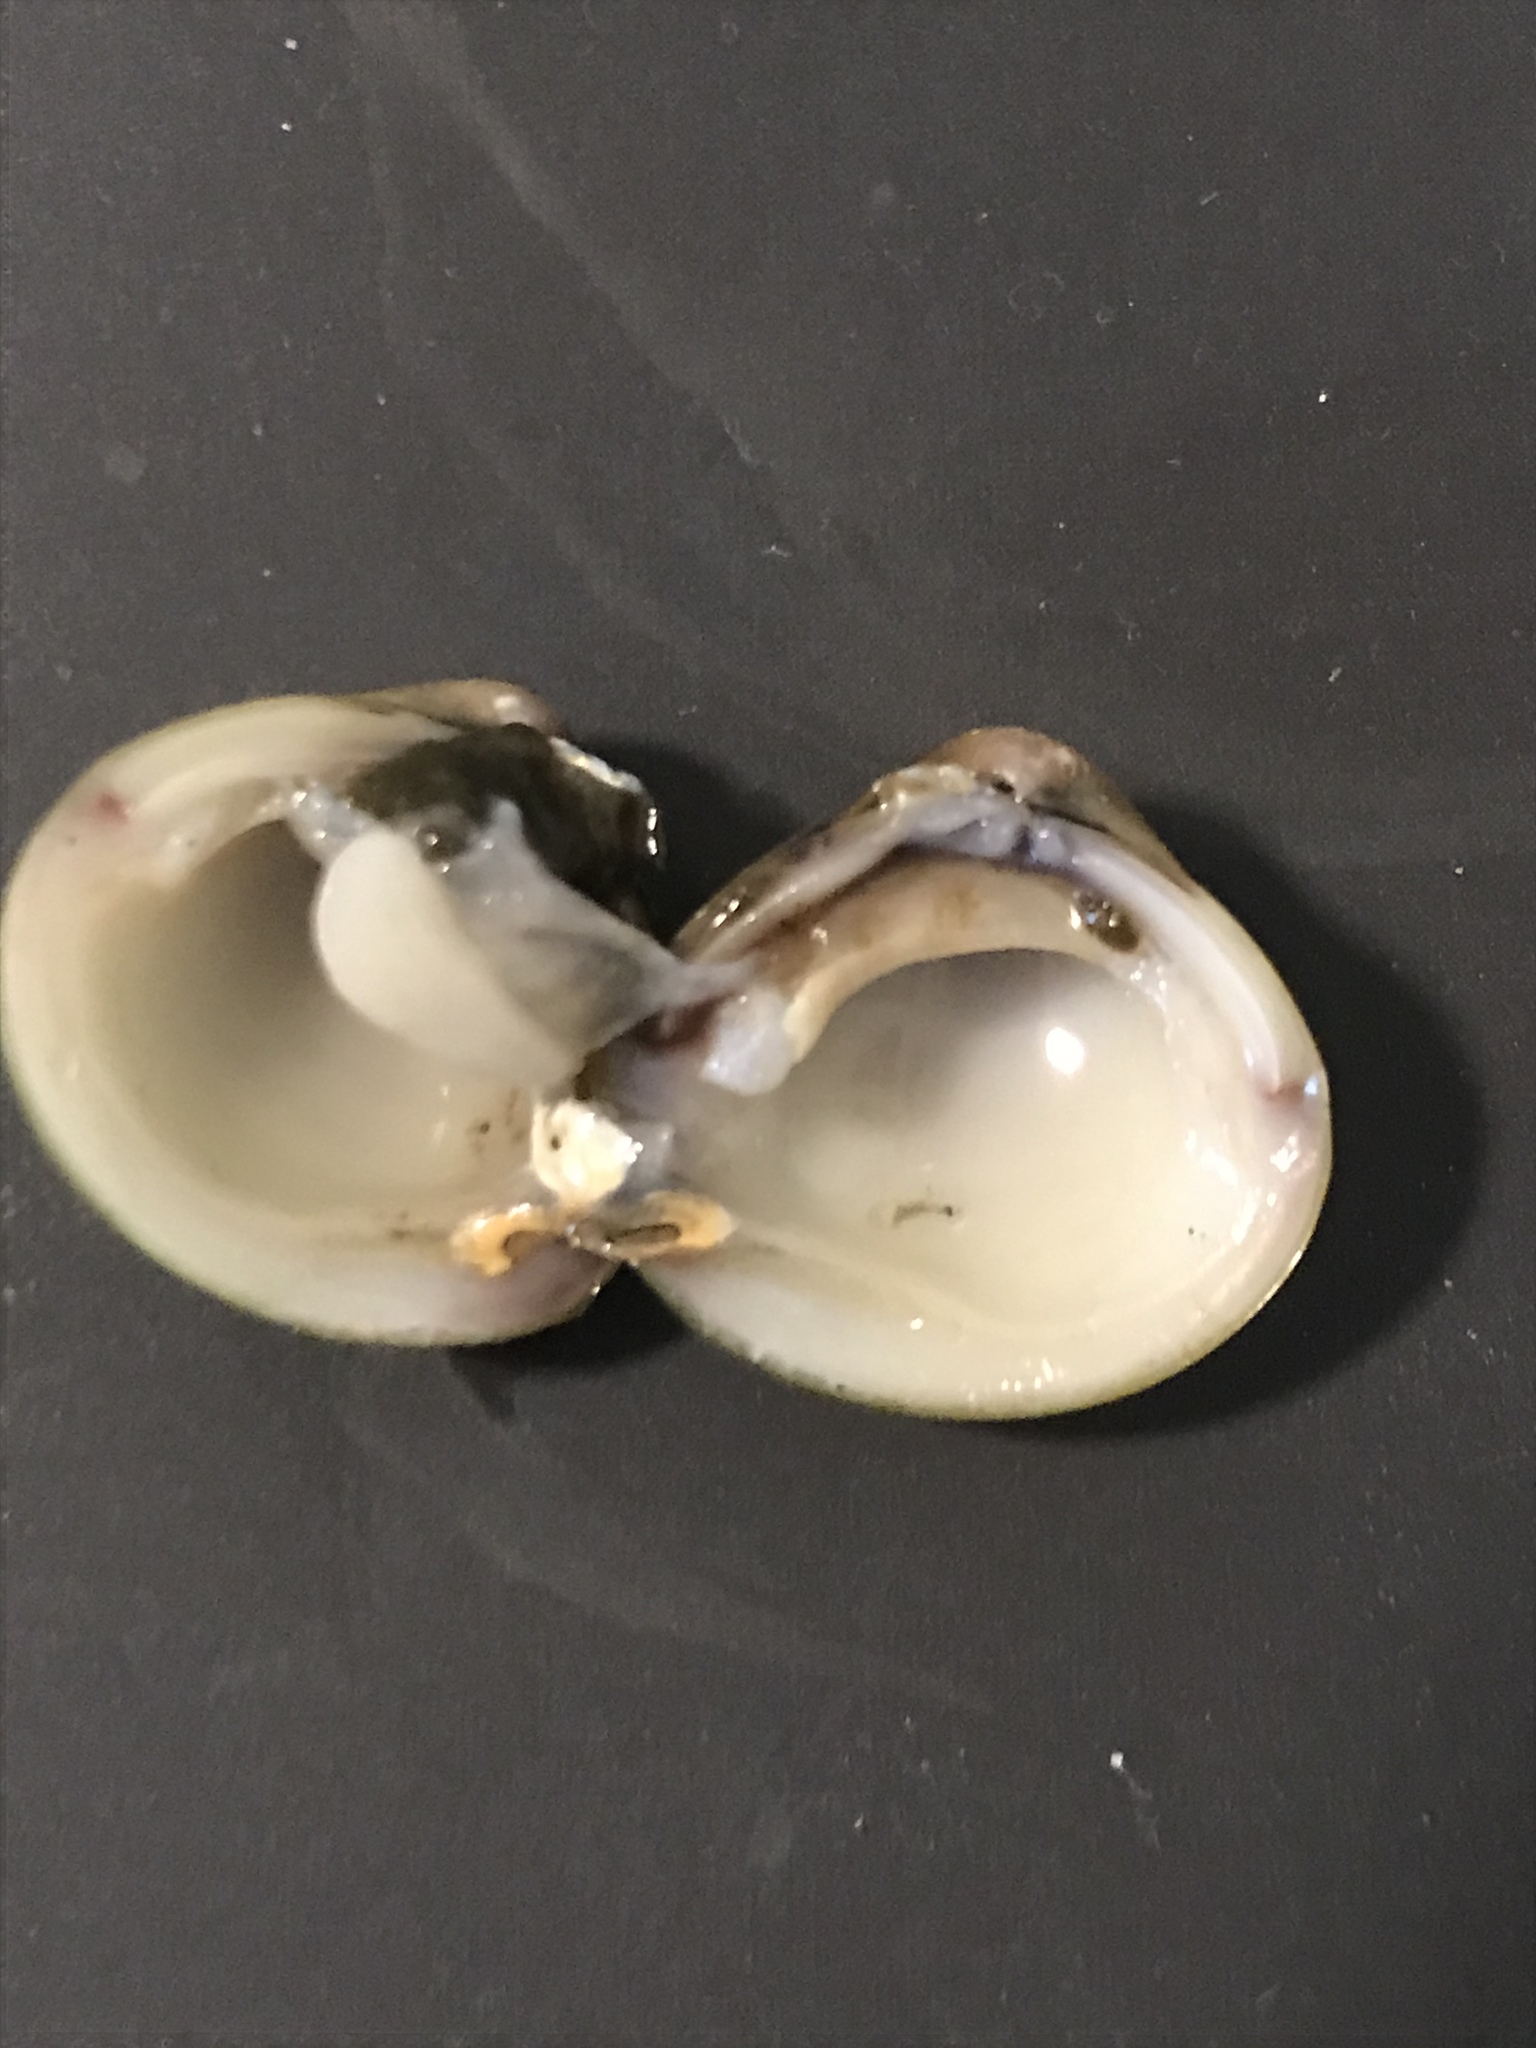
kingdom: Animalia
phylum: Mollusca
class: Bivalvia
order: Venerida
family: Cyrenidae
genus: Corbicula
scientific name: Corbicula fluminea
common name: Asian clam
